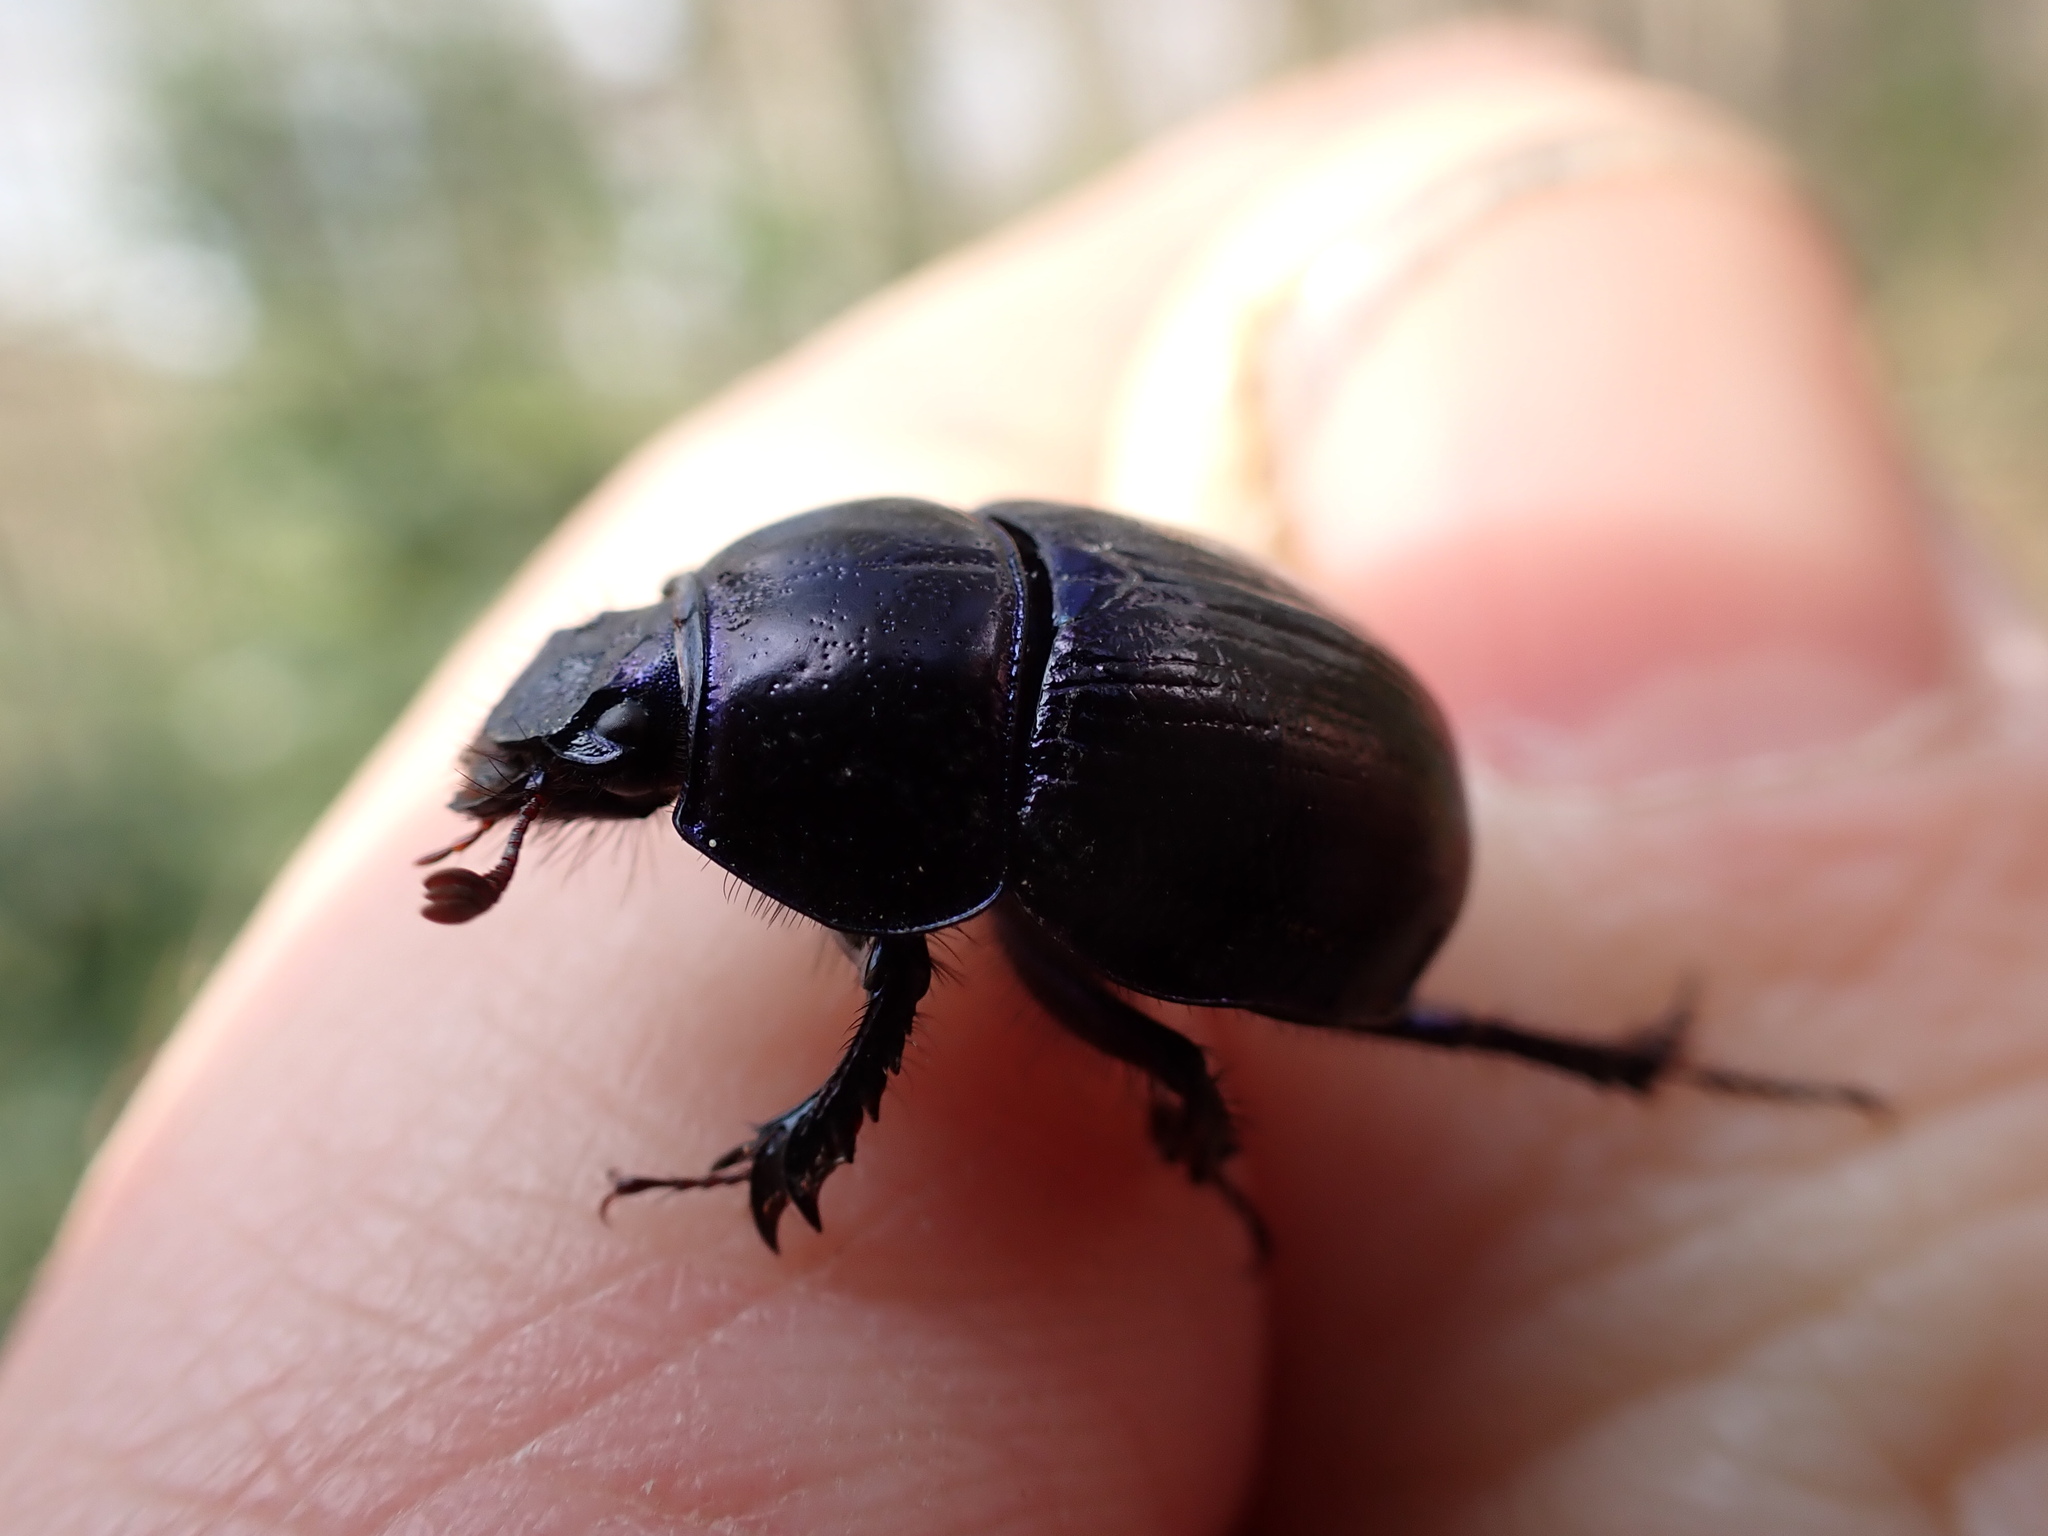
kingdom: Animalia
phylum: Arthropoda
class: Insecta
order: Coleoptera
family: Geotrupidae
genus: Anoplotrupes
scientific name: Anoplotrupes stercorosus
